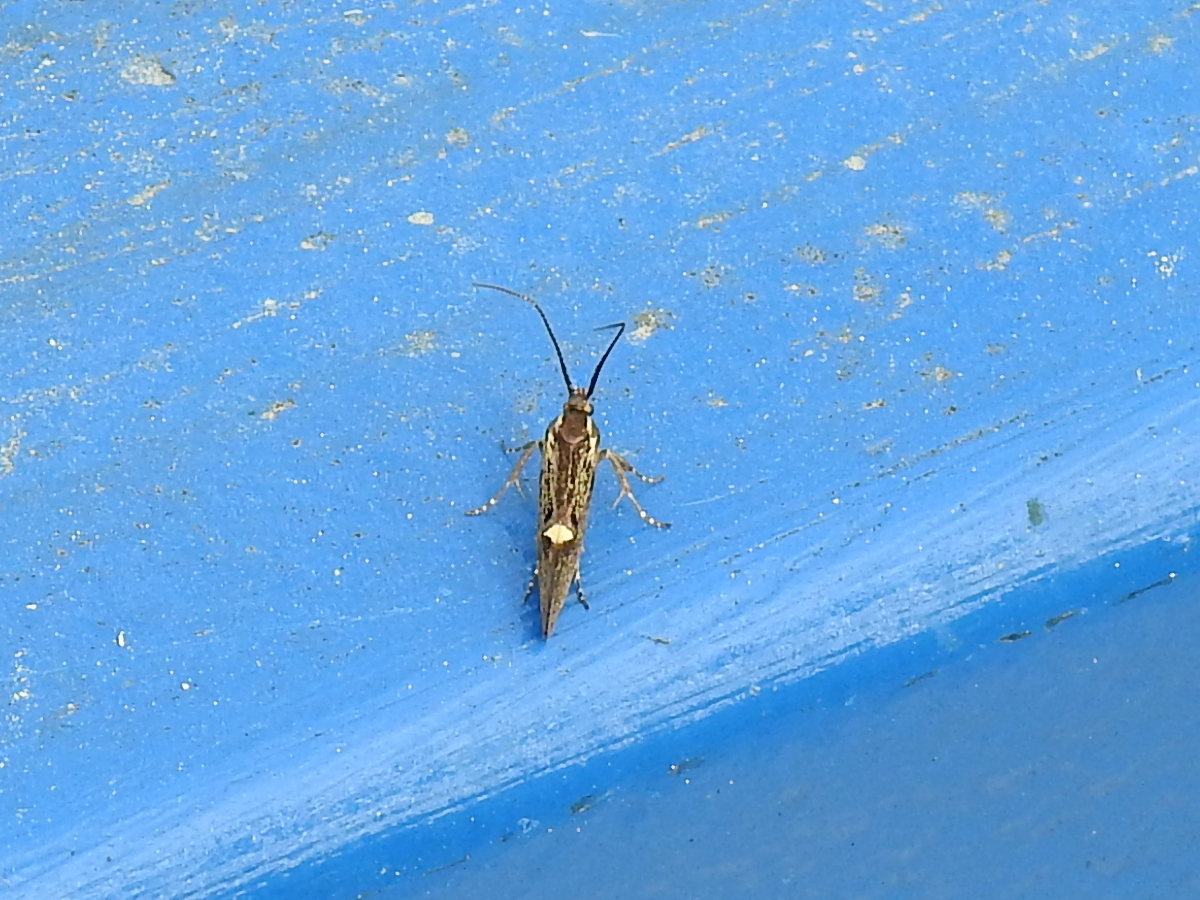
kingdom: Animalia
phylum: Arthropoda
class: Insecta
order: Lepidoptera
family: Oecophoridae
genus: Dafa
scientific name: Dafa Esperia sulphurella
